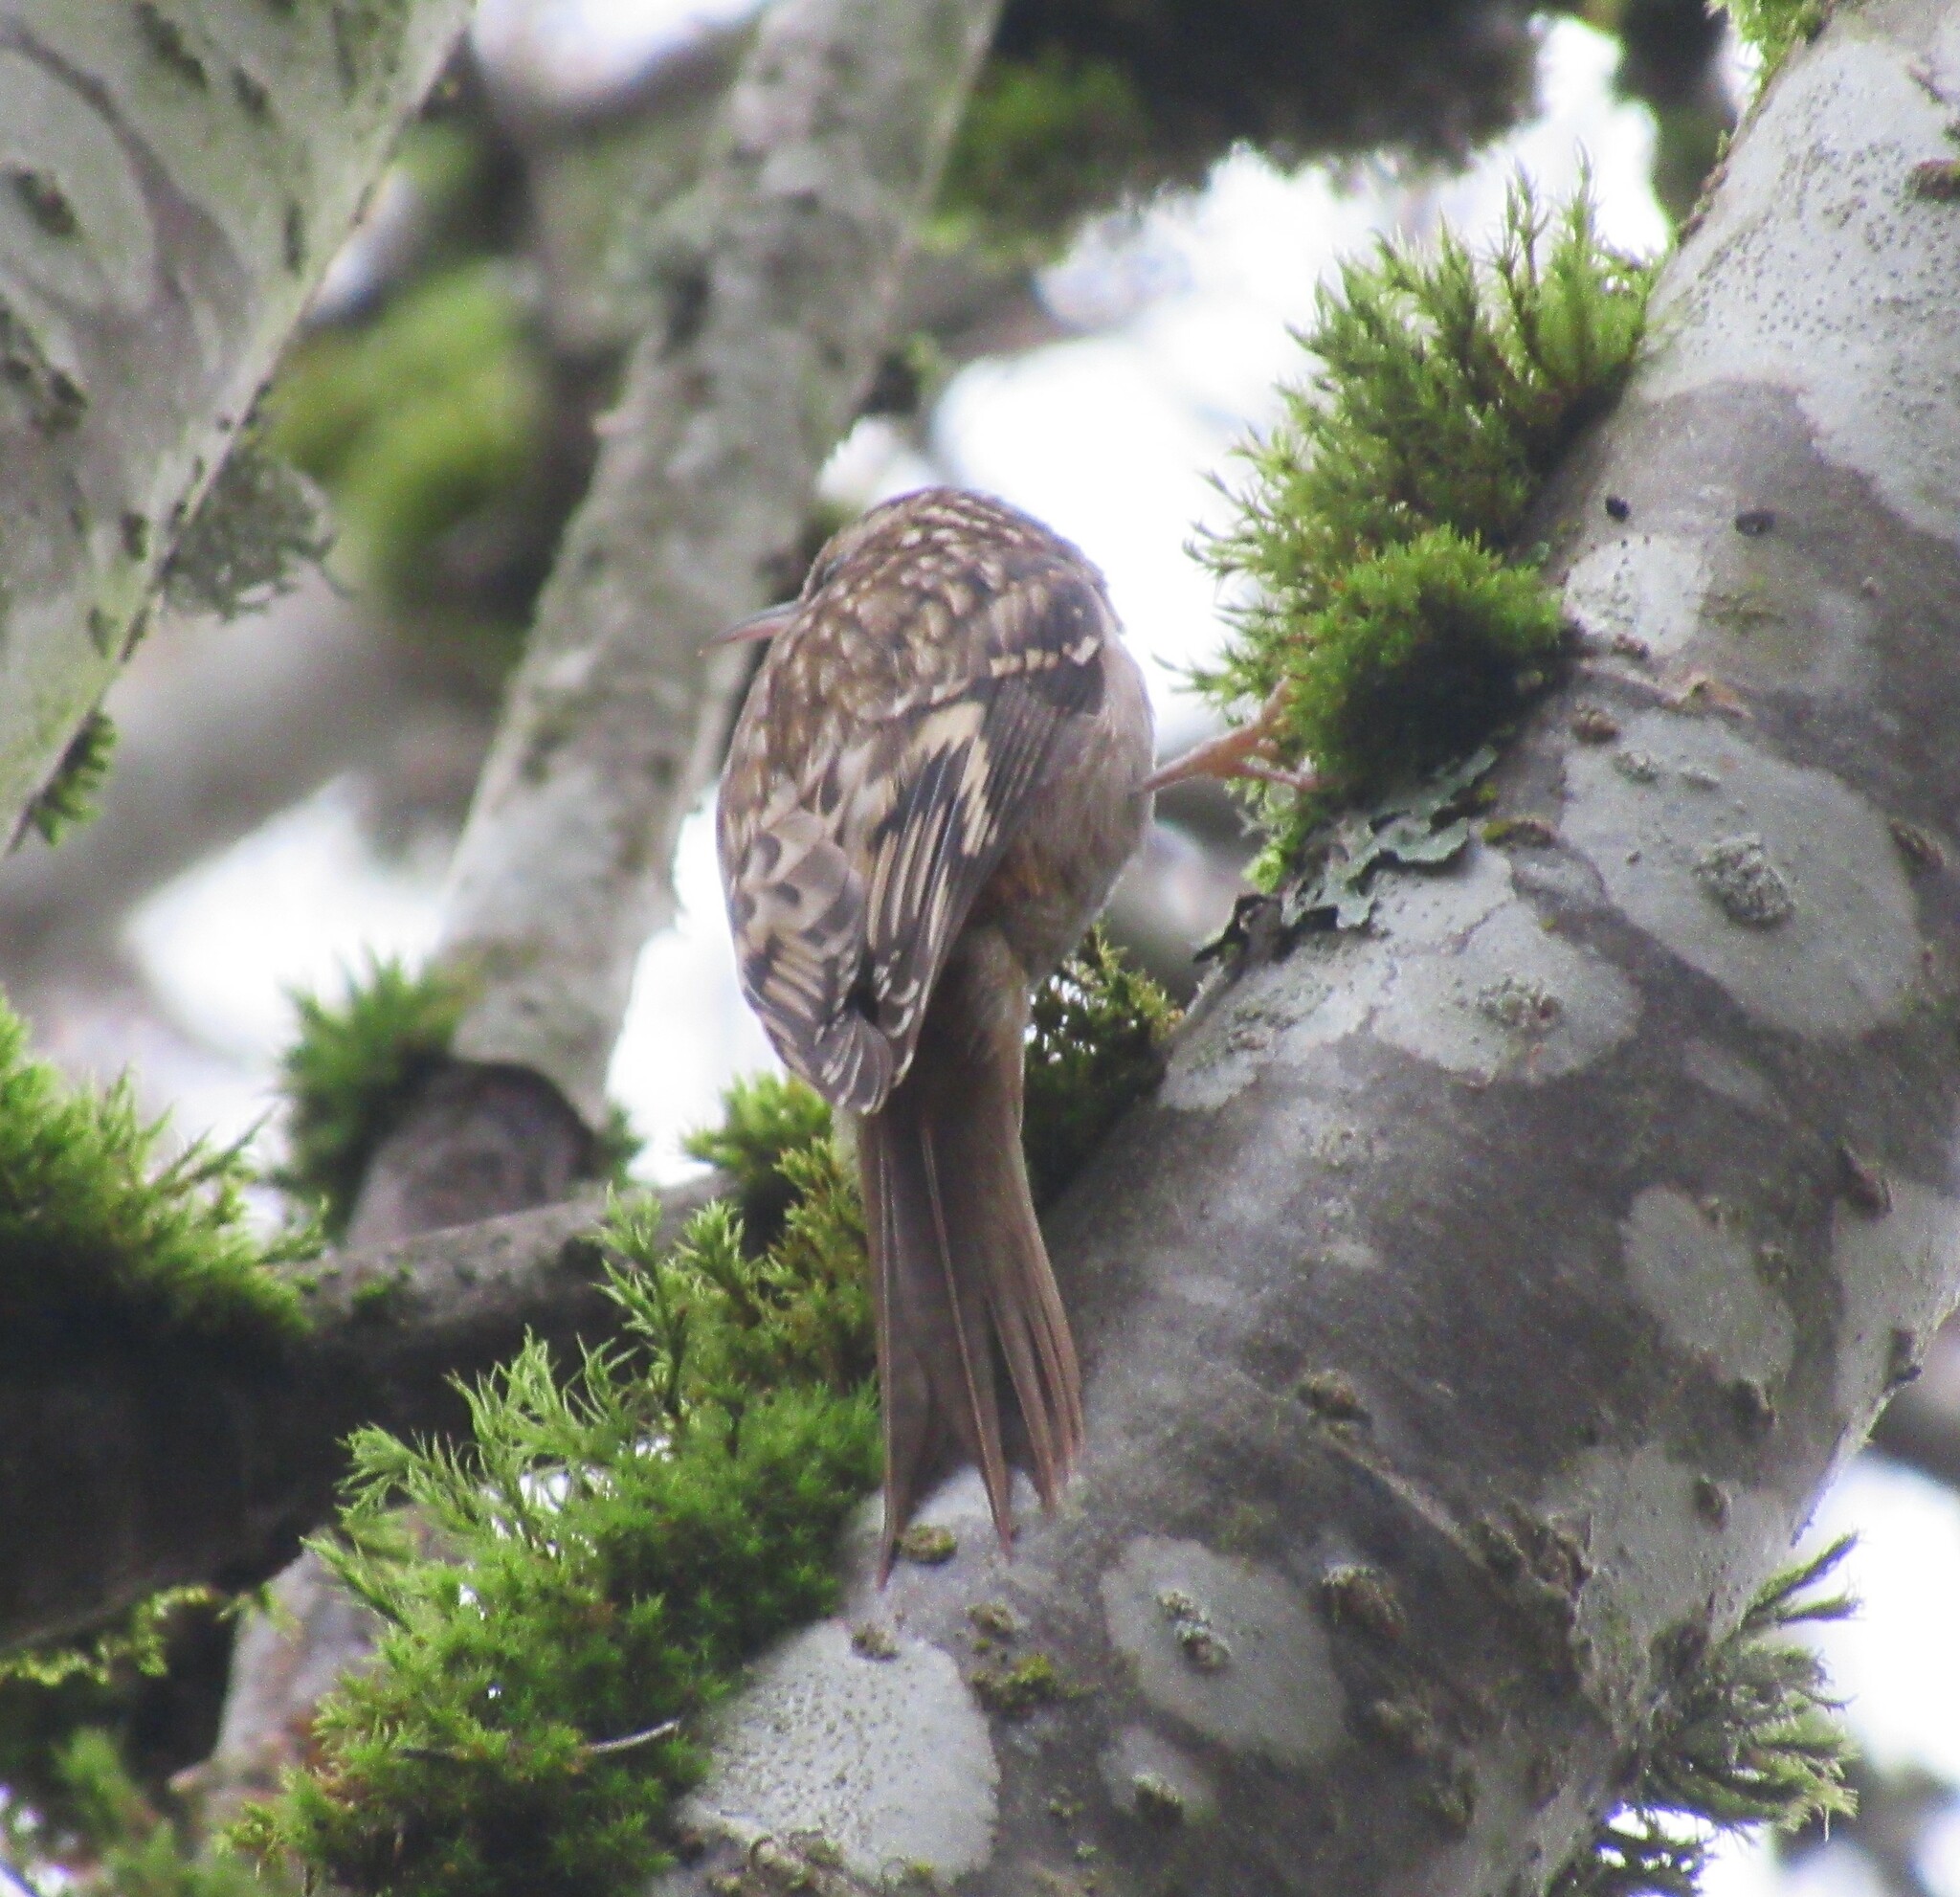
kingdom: Animalia
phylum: Chordata
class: Aves
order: Passeriformes
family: Certhiidae
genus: Certhia
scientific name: Certhia americana
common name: Brown creeper
